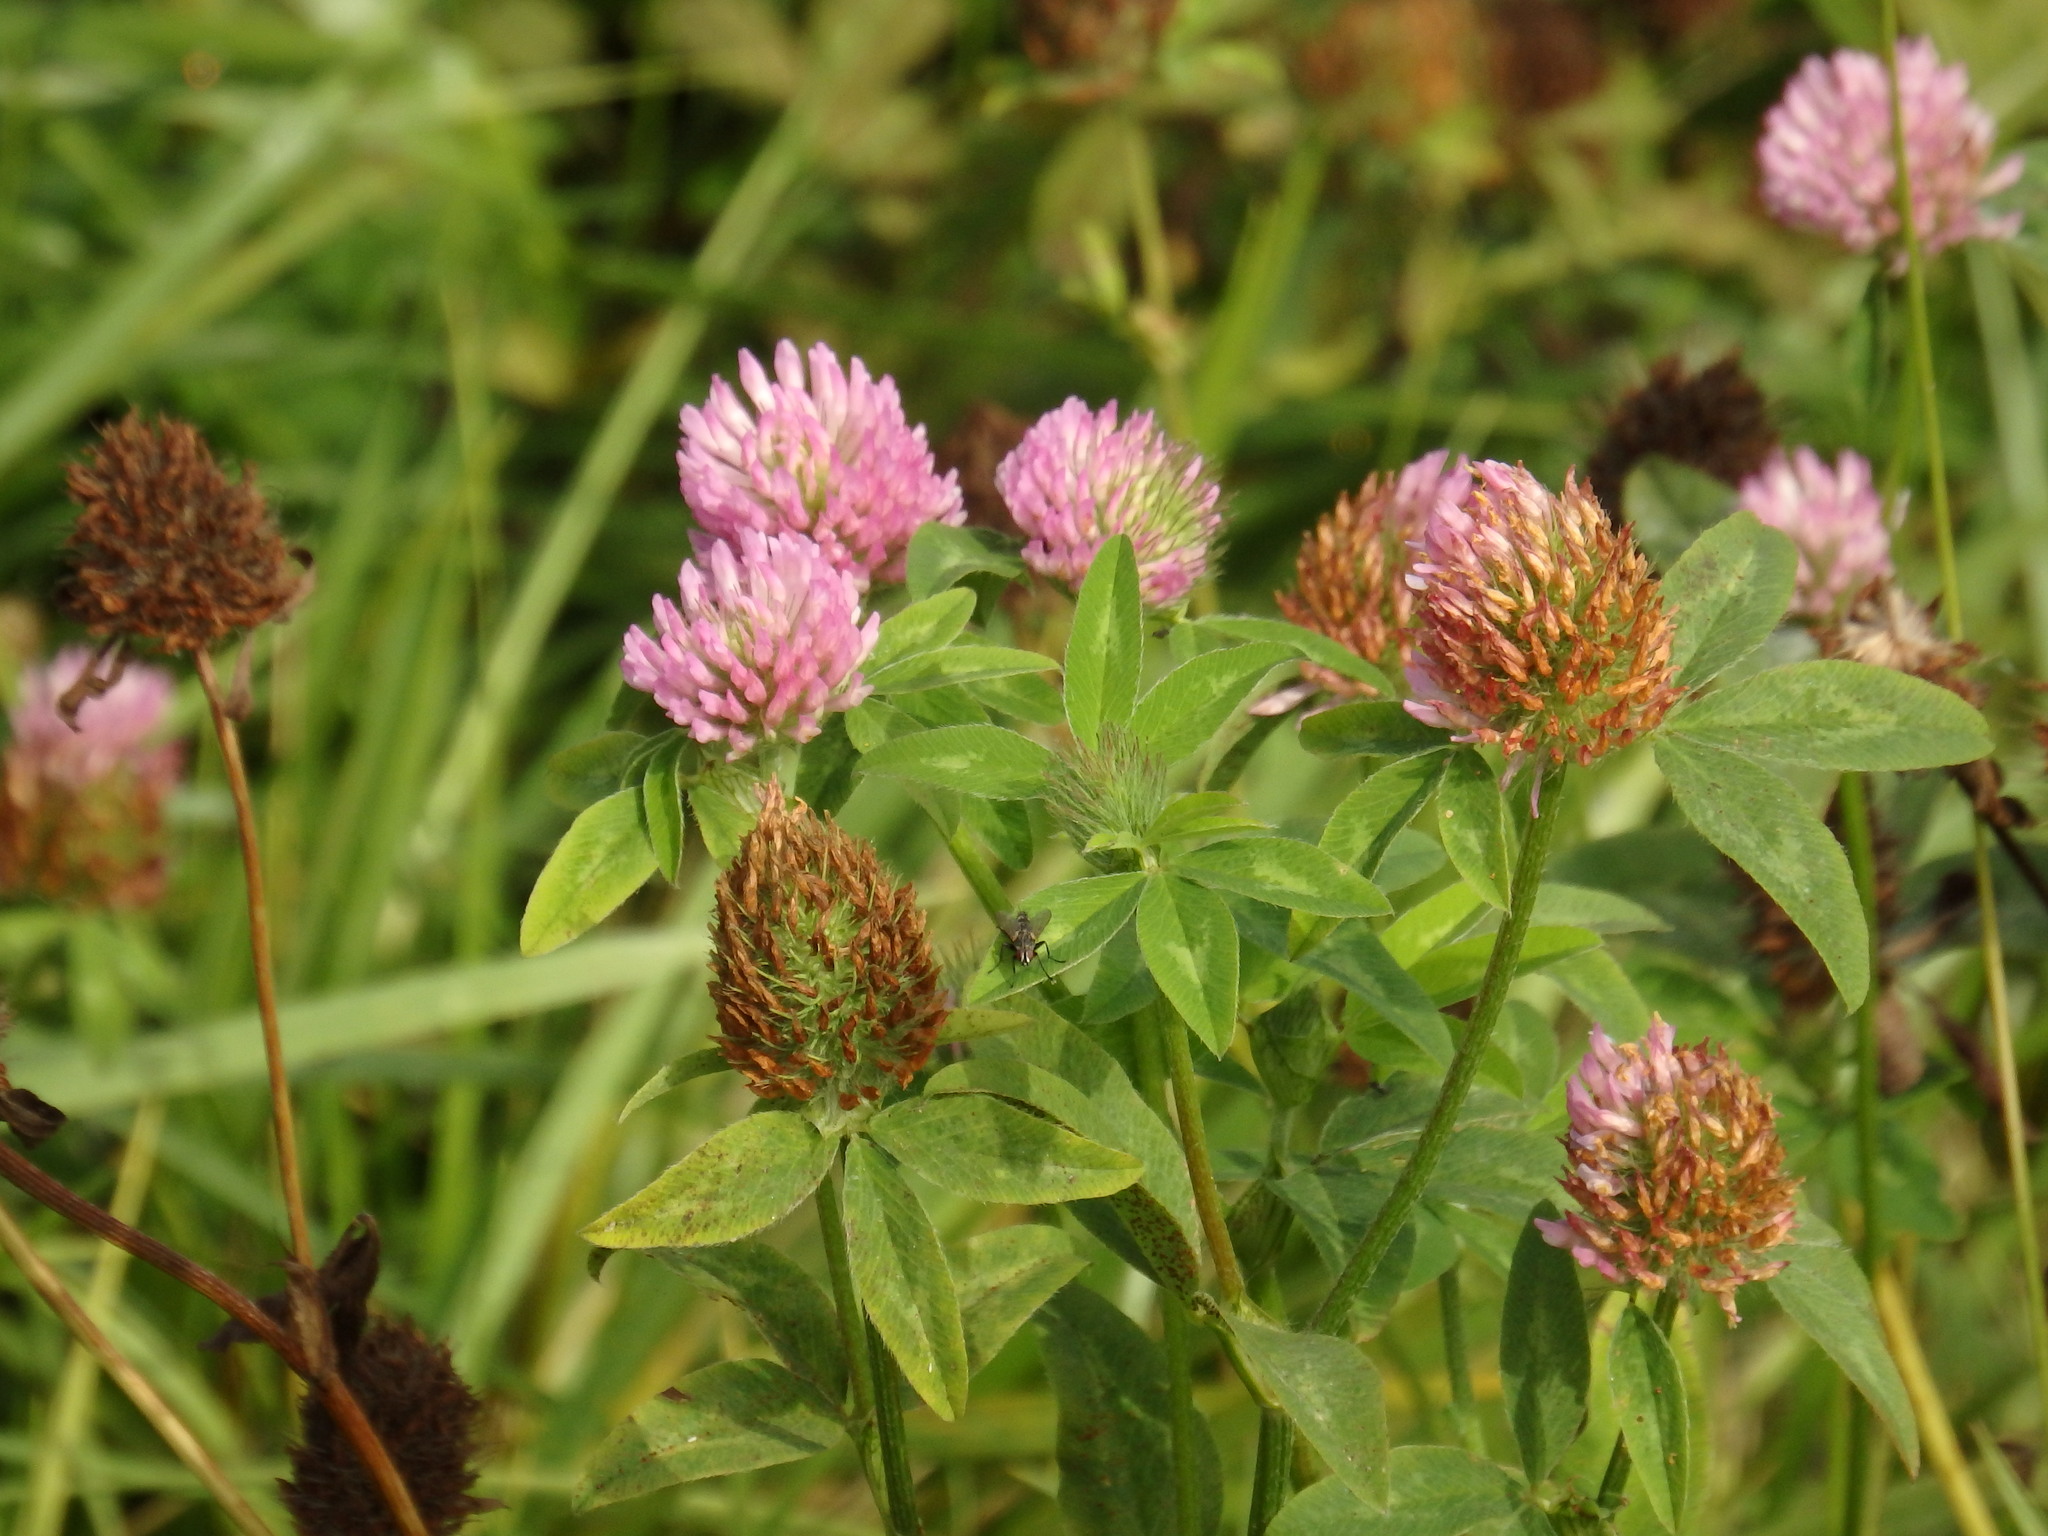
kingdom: Plantae
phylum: Tracheophyta
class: Magnoliopsida
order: Fabales
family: Fabaceae
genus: Trifolium
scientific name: Trifolium pratense
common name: Red clover
